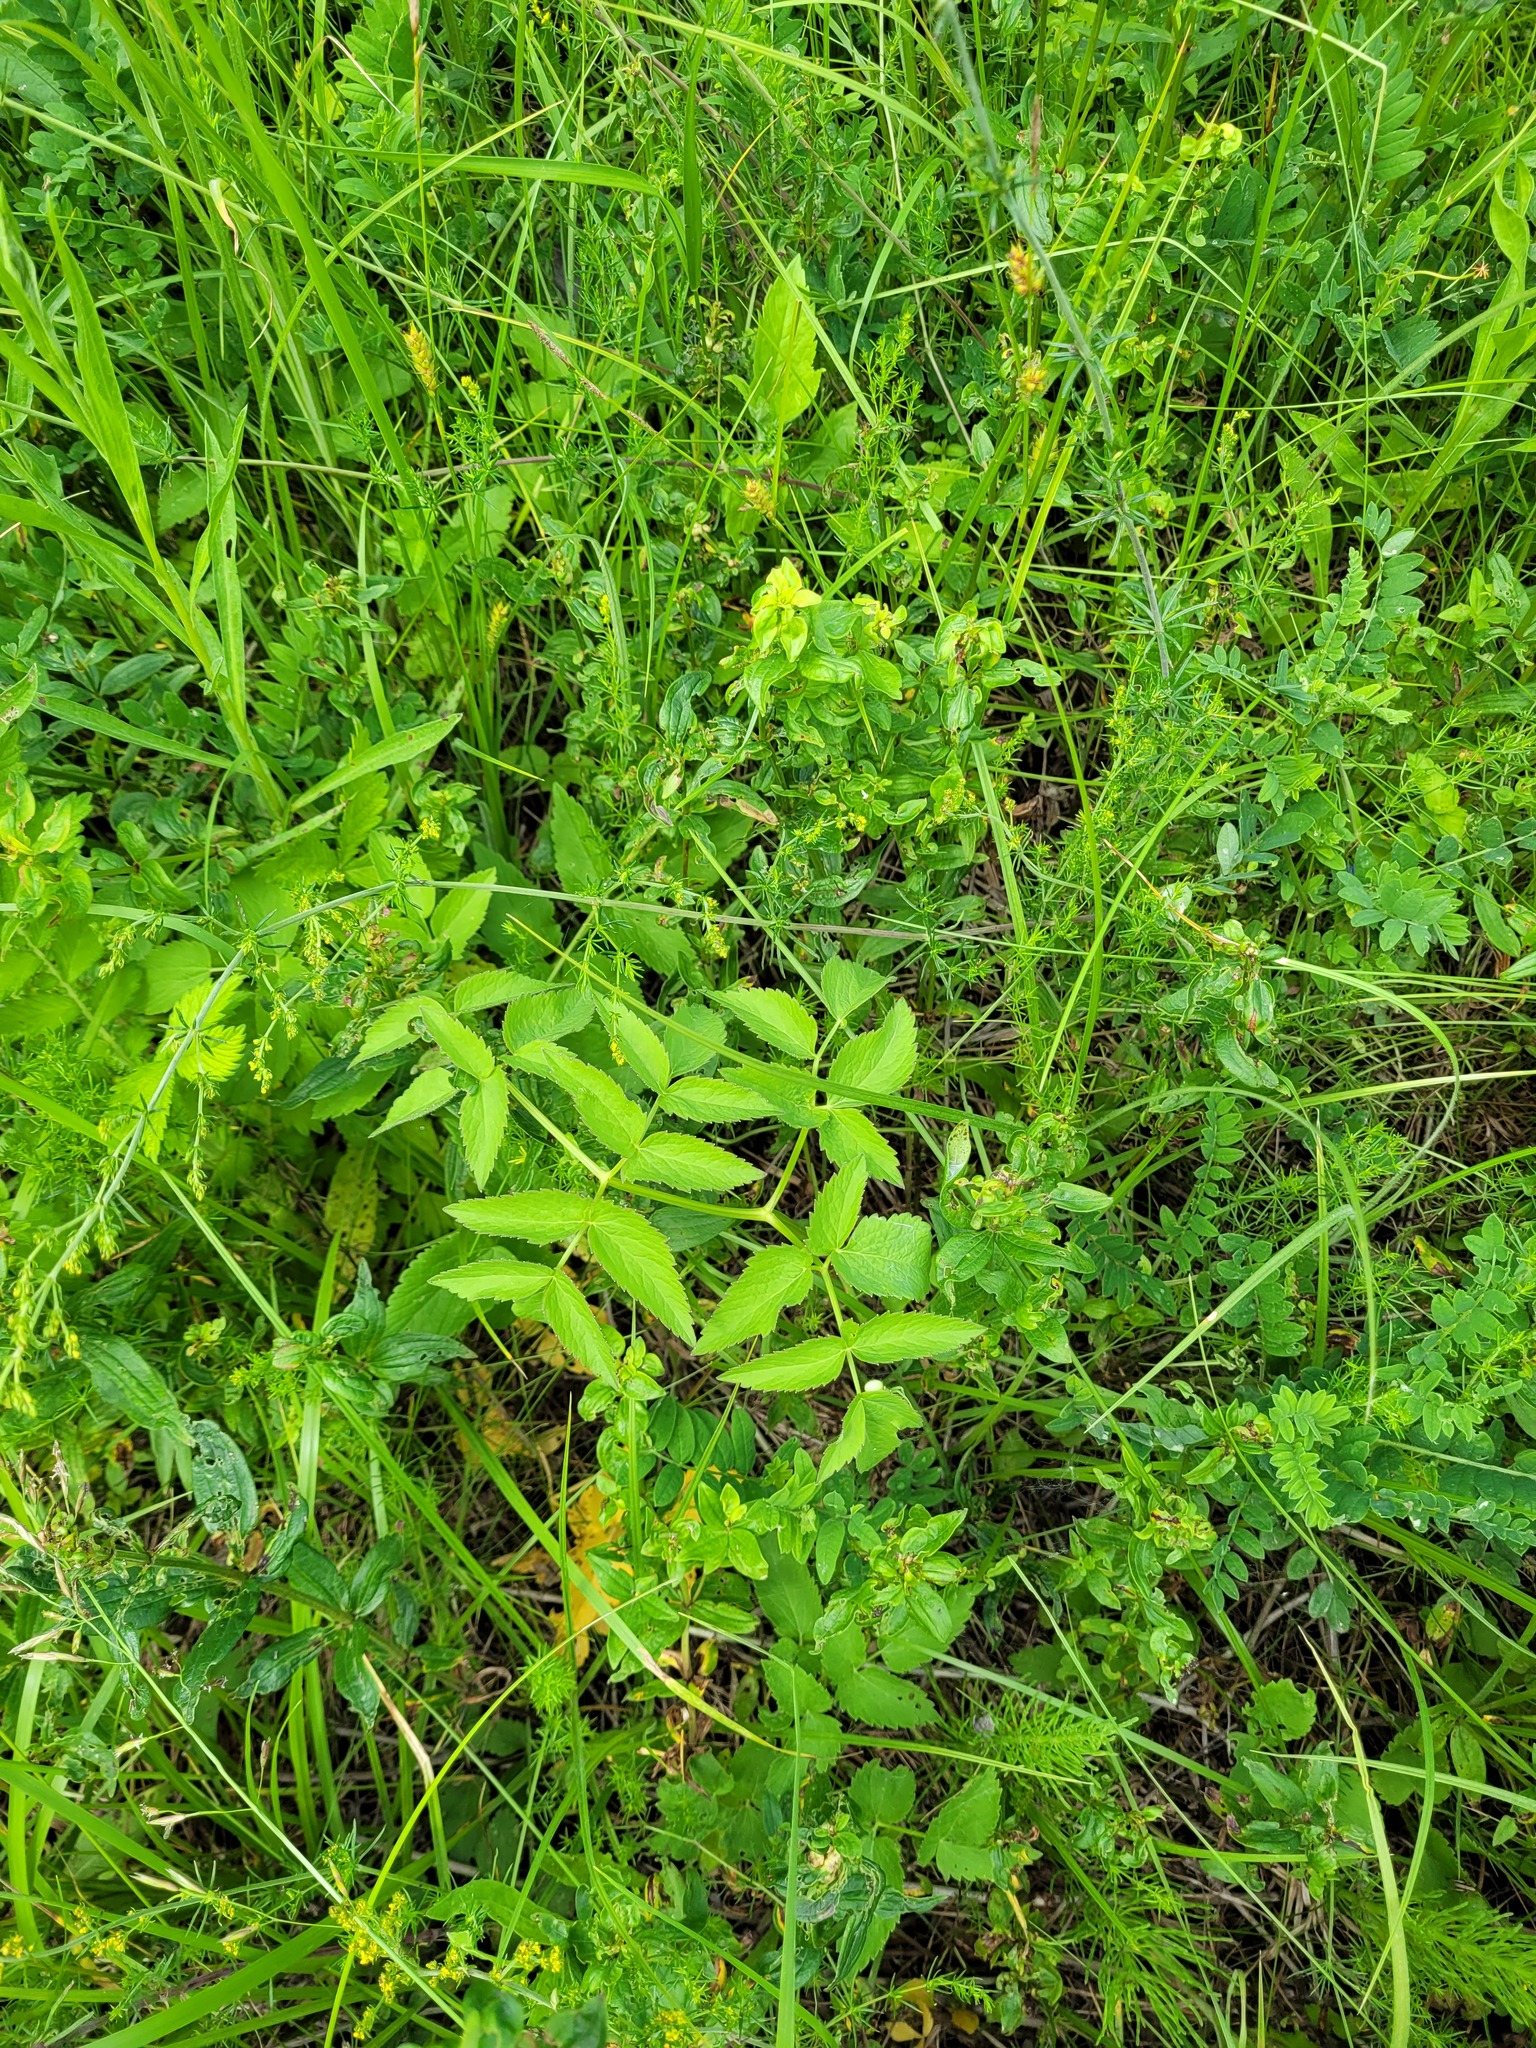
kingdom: Plantae
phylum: Tracheophyta
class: Magnoliopsida
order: Apiales
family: Apiaceae
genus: Ostericum
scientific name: Ostericum palustre
